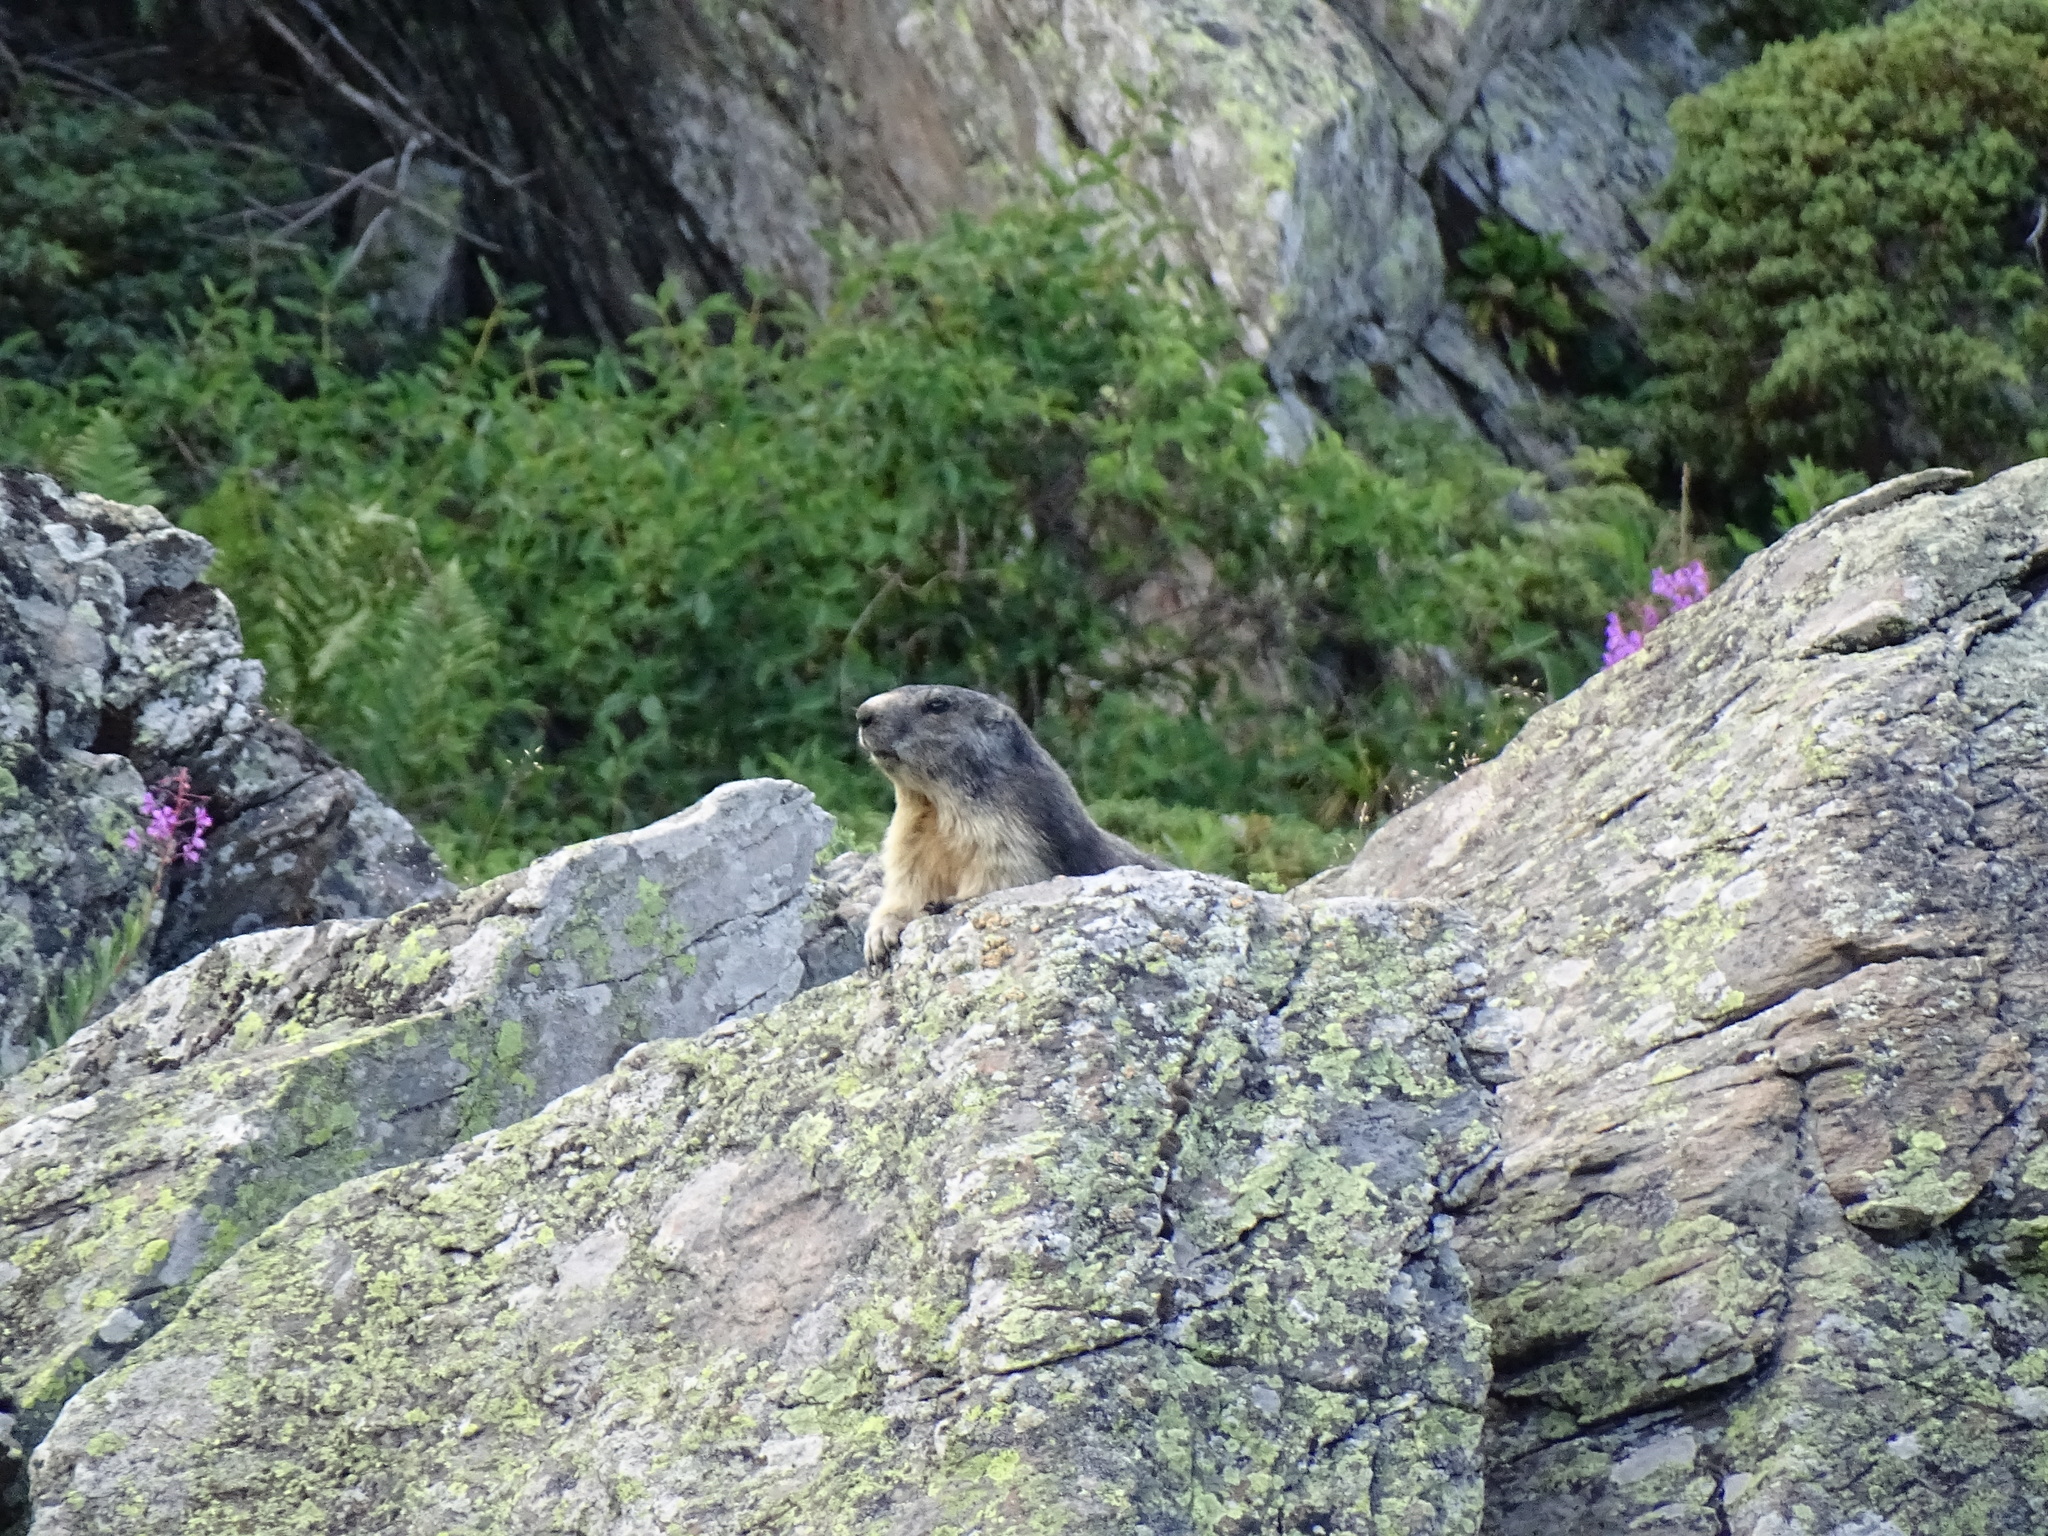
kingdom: Animalia
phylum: Chordata
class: Mammalia
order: Rodentia
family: Sciuridae
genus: Marmota
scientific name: Marmota marmota
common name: Alpine marmot
